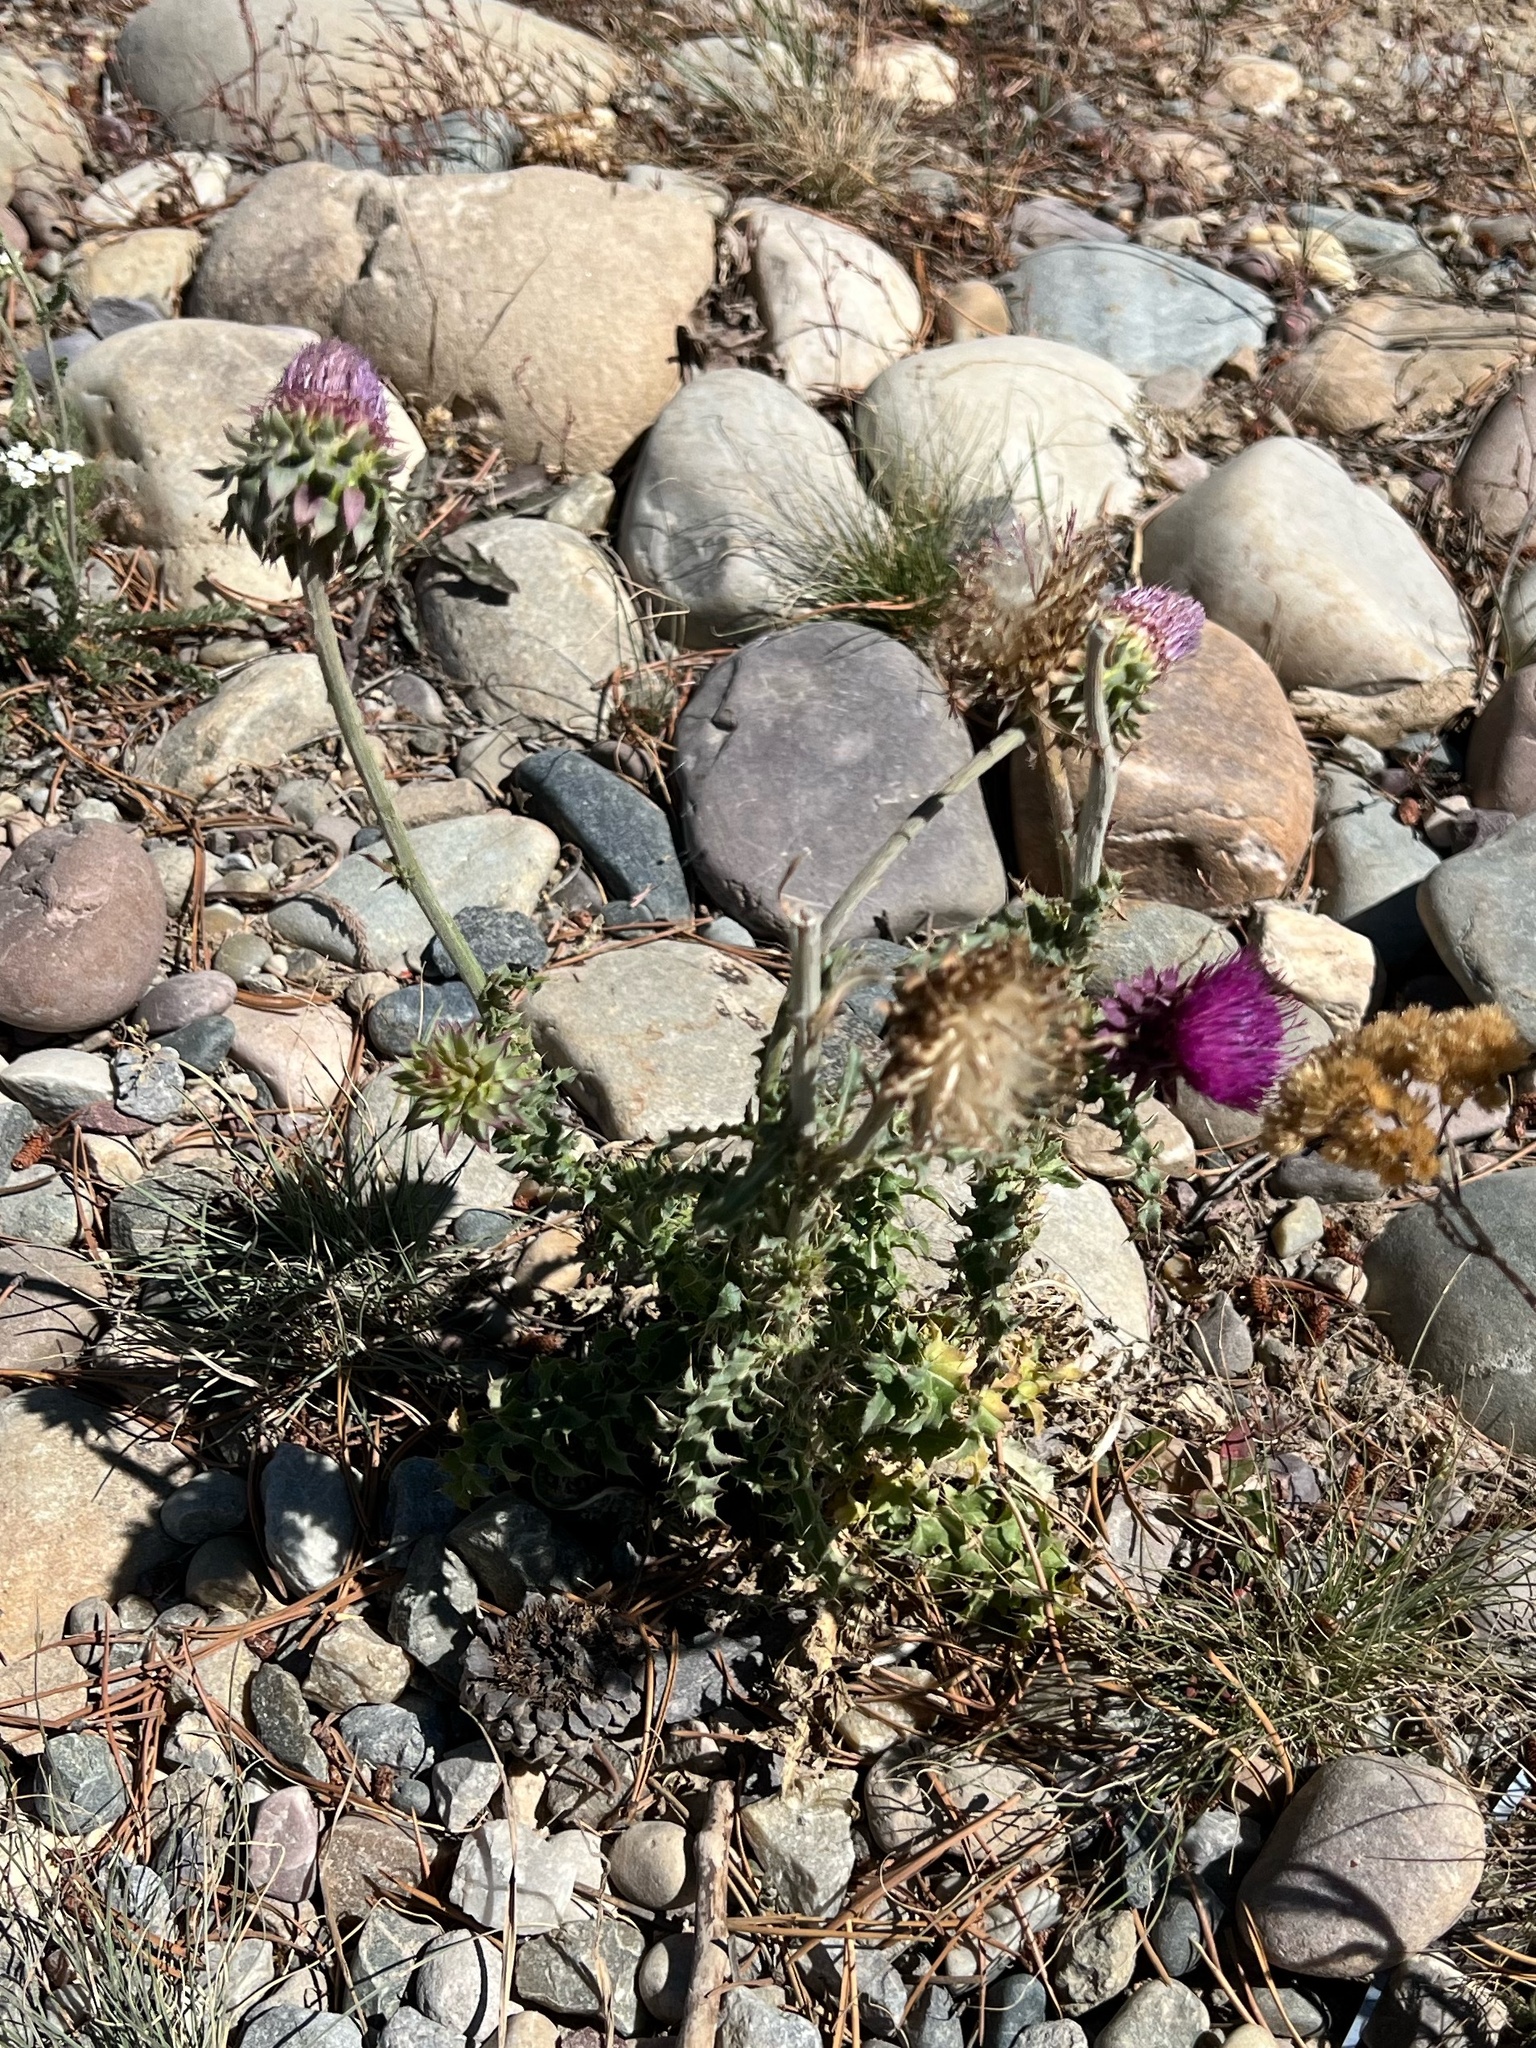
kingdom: Plantae
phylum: Tracheophyta
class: Magnoliopsida
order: Asterales
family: Asteraceae
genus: Carduus
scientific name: Carduus nutans
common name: Musk thistle
